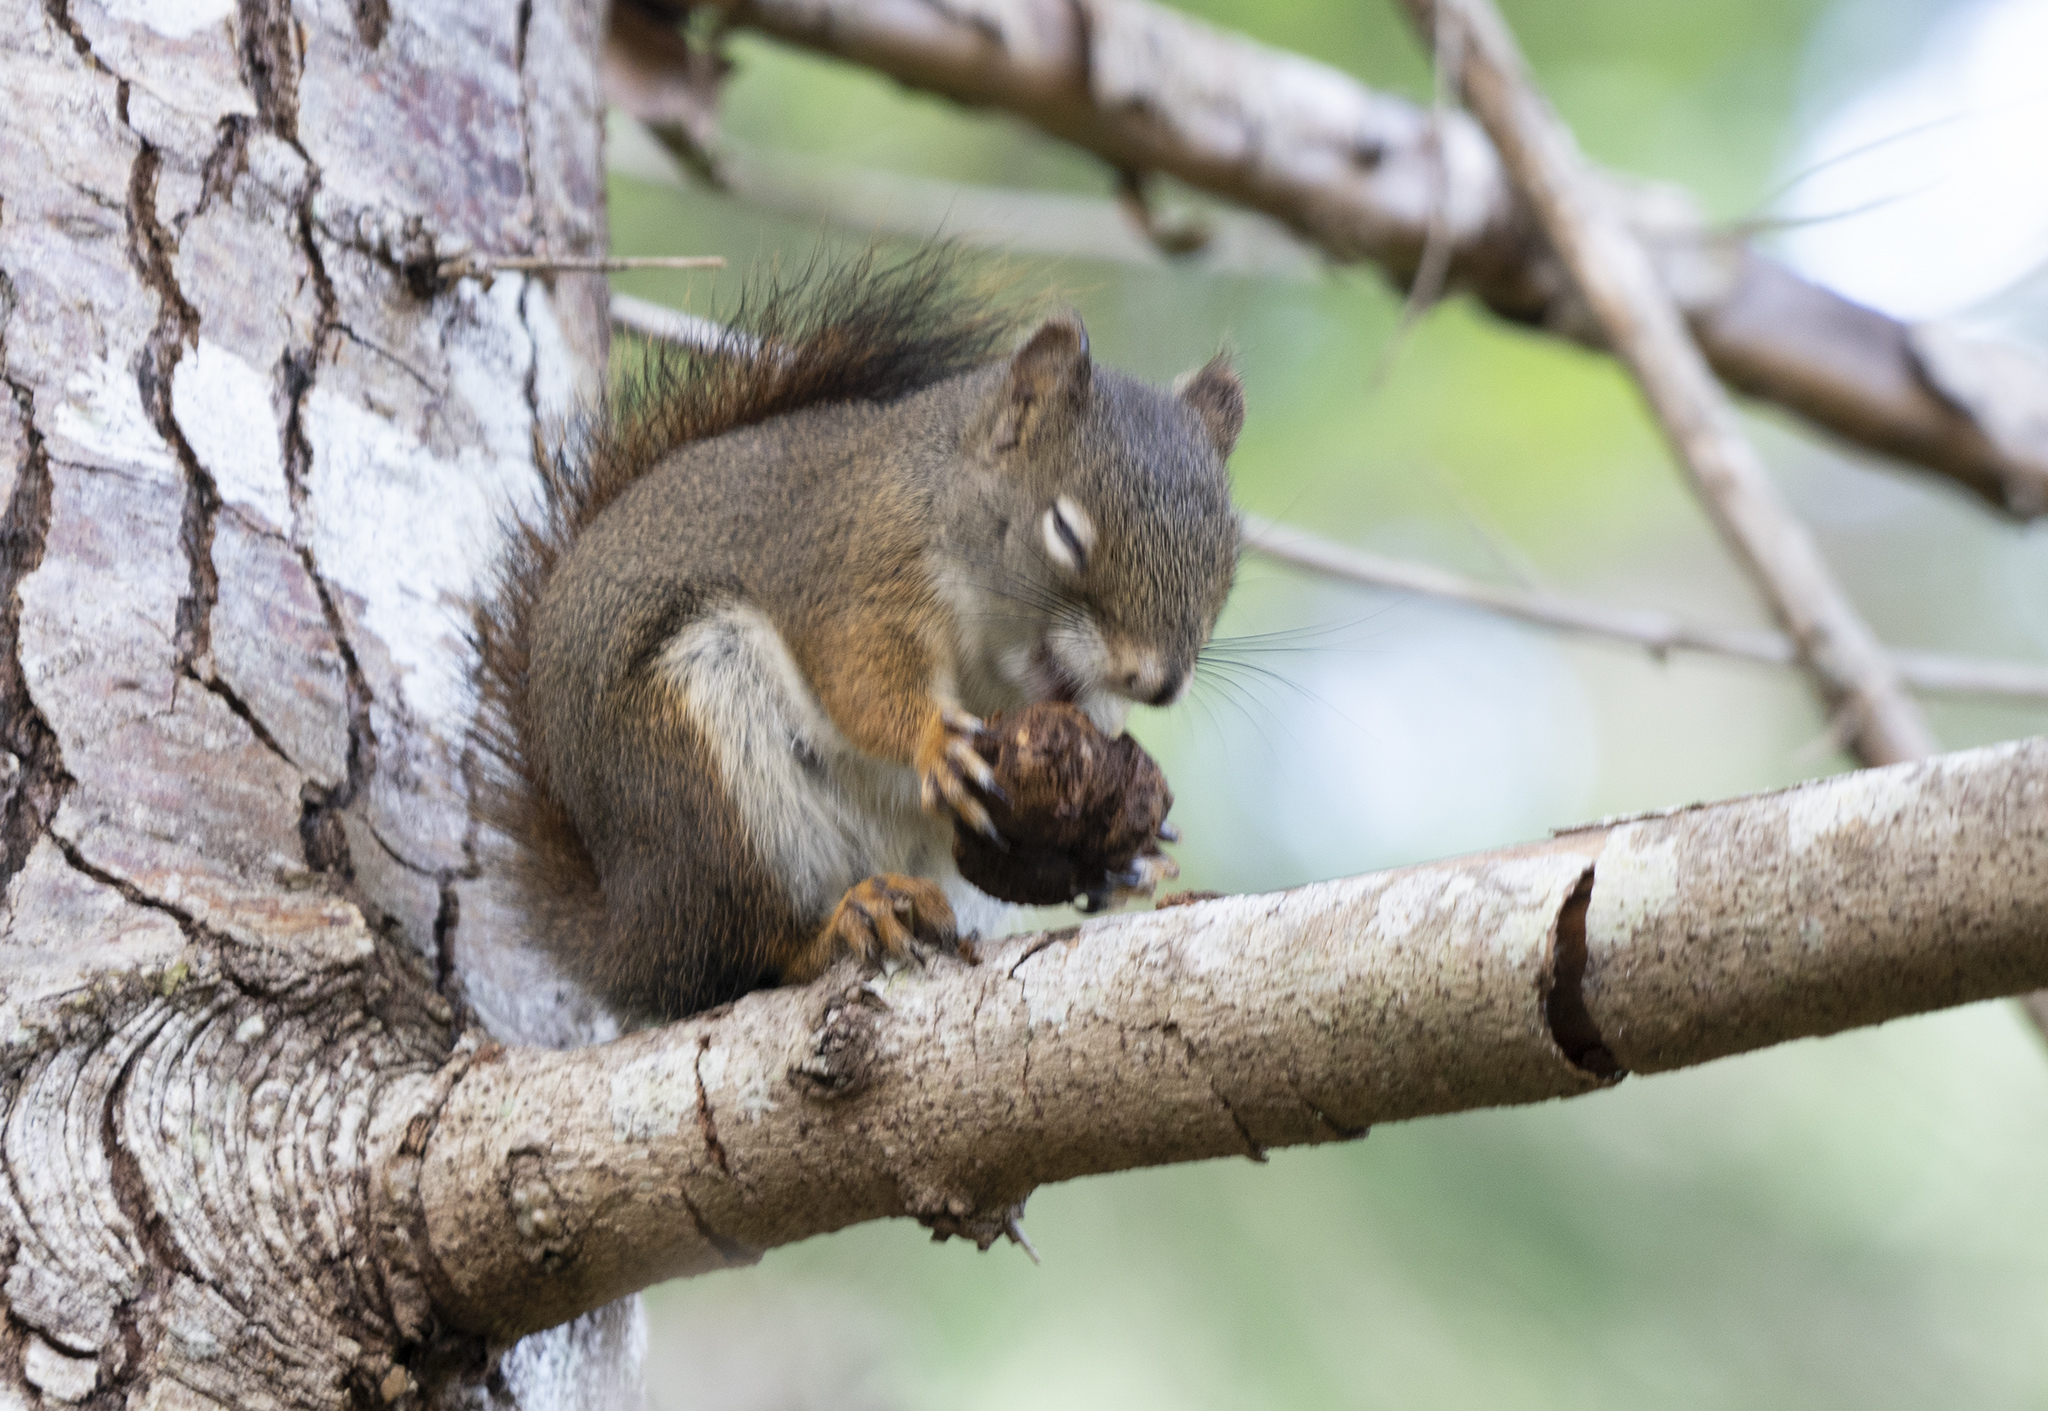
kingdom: Animalia
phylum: Chordata
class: Mammalia
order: Rodentia
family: Sciuridae
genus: Tamiasciurus
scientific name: Tamiasciurus hudsonicus
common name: Red squirrel
